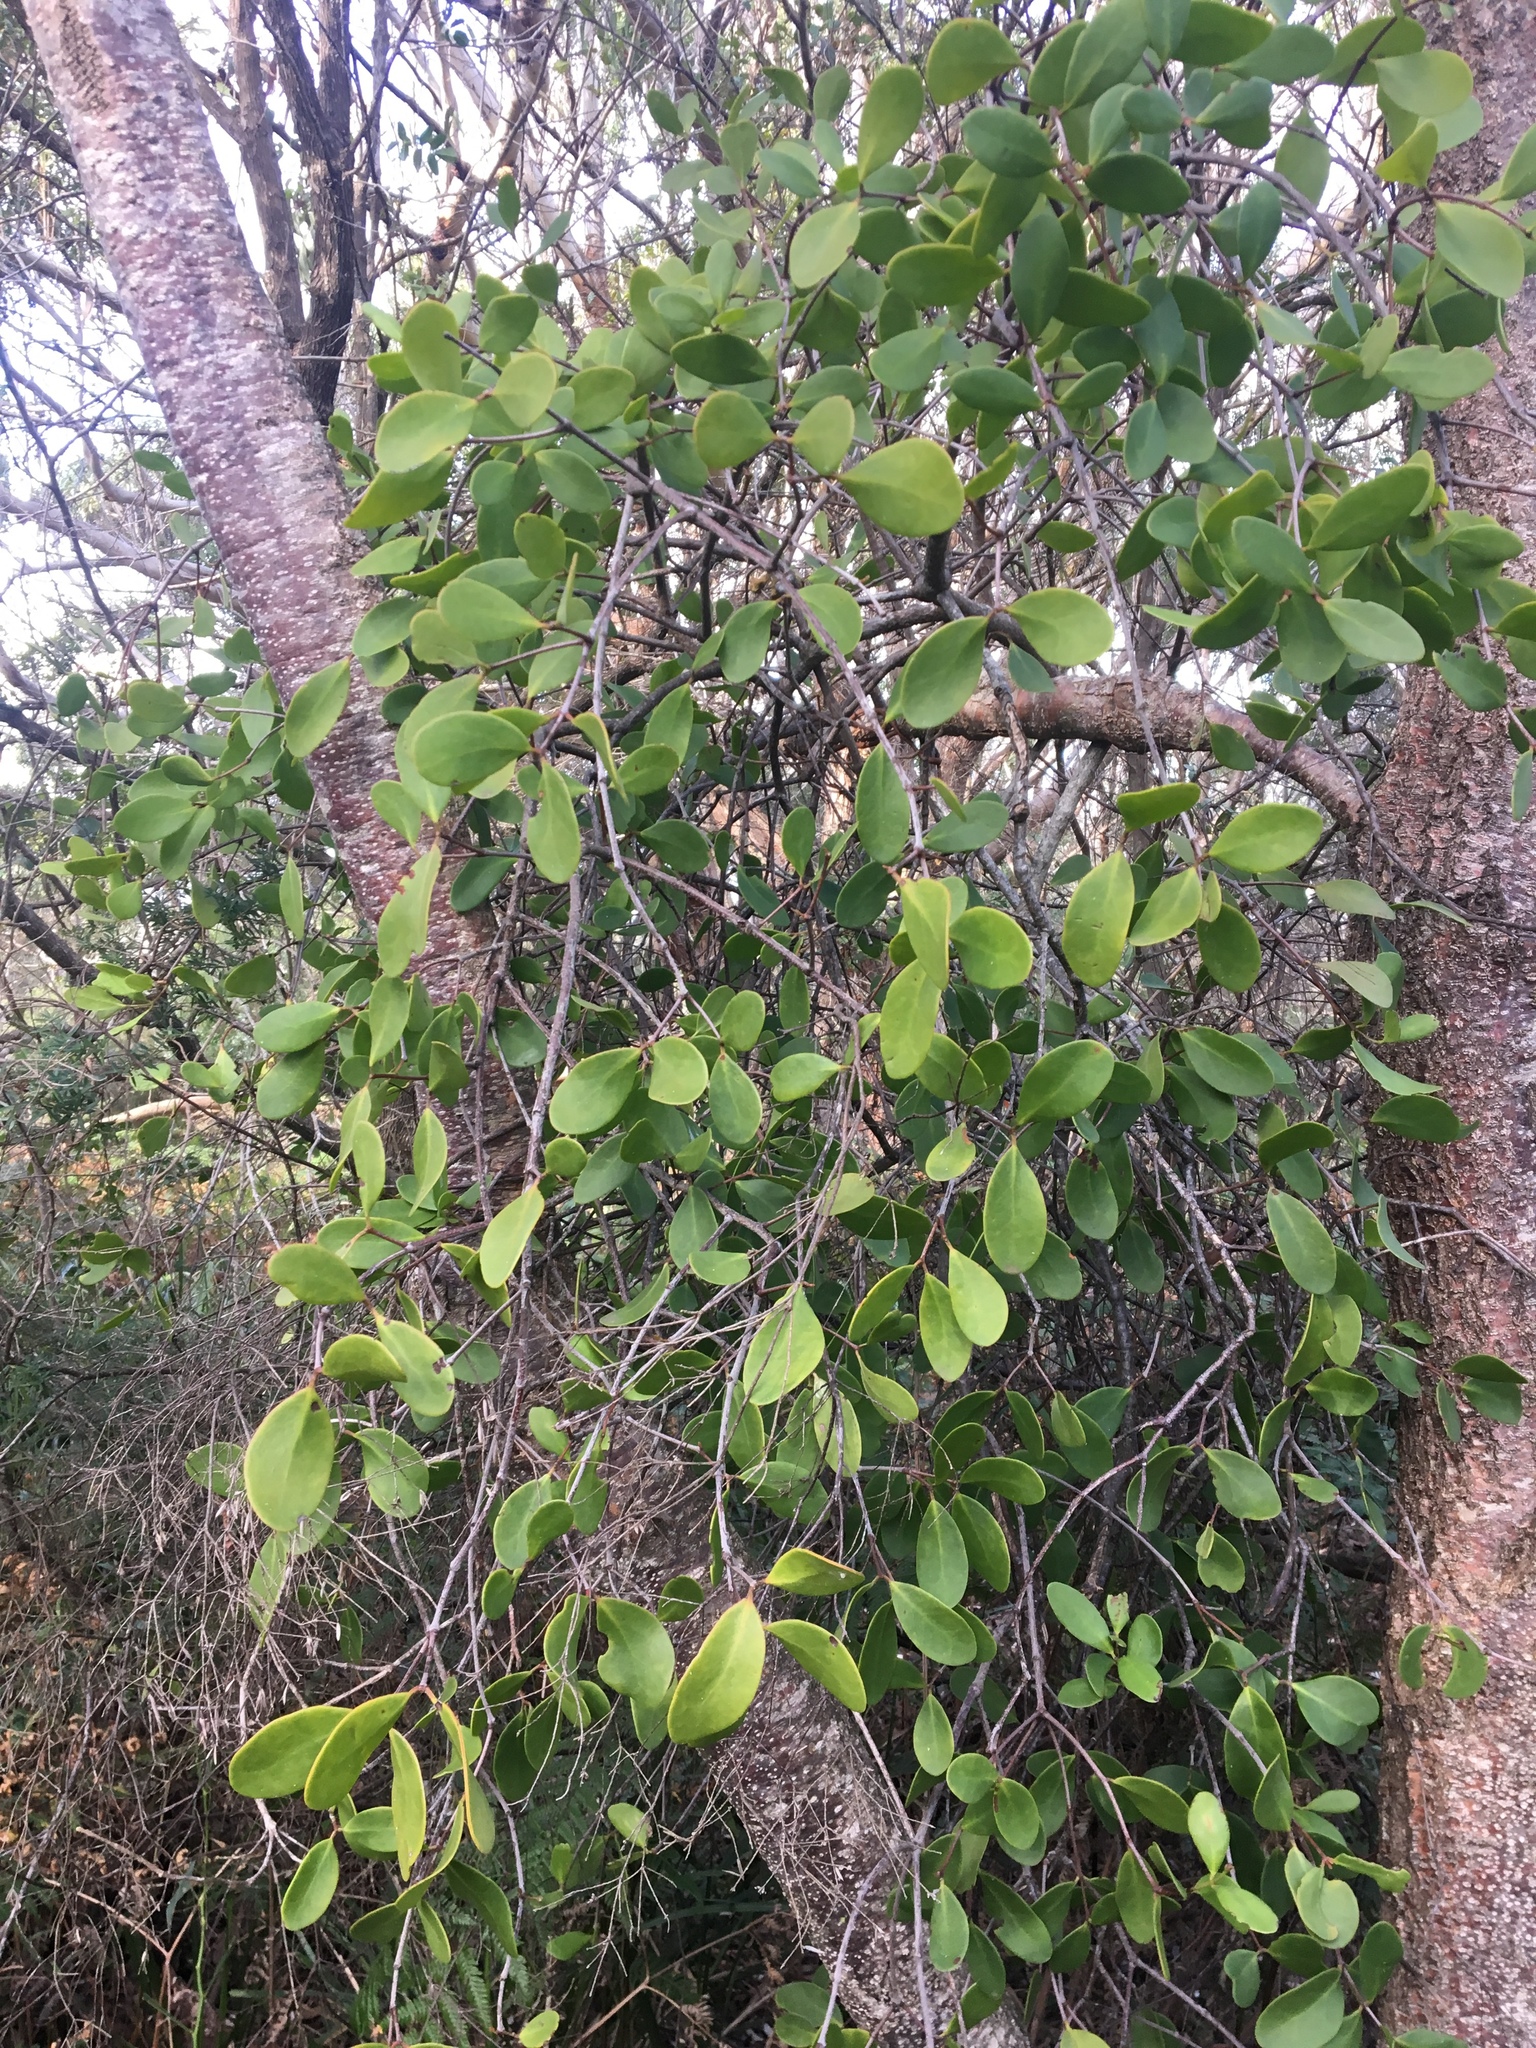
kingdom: Plantae
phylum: Tracheophyta
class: Magnoliopsida
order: Santalales
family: Loranthaceae
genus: Muellerina
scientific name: Muellerina celastroides
